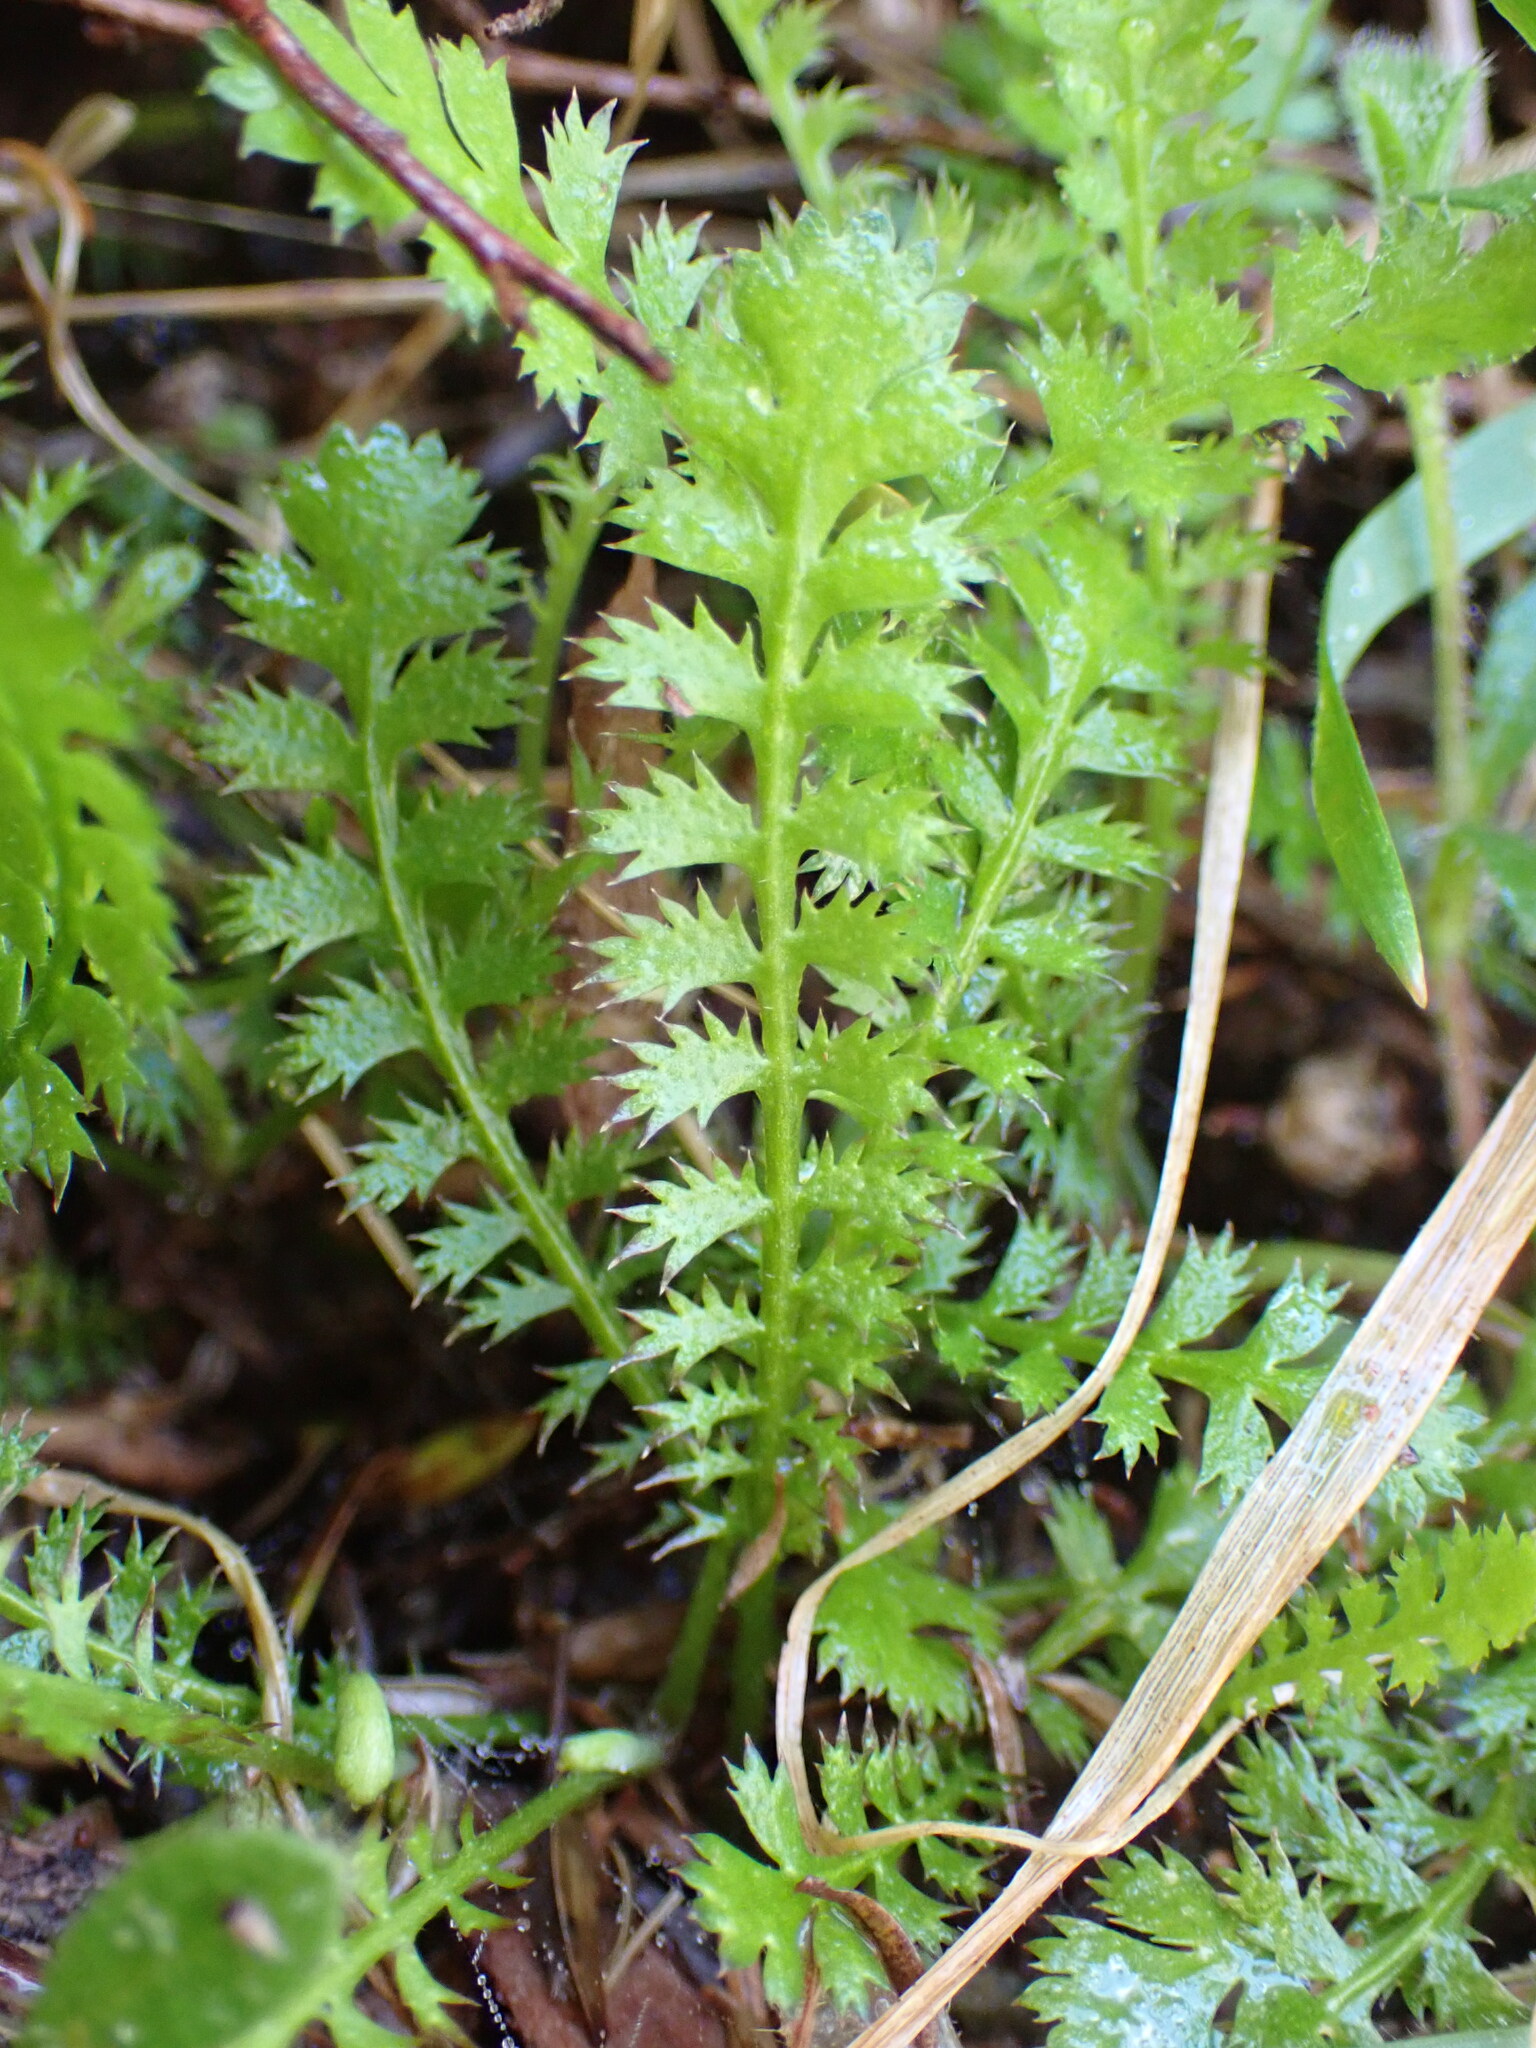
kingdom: Plantae
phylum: Tracheophyta
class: Magnoliopsida
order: Asterales
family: Asteraceae
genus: Leptinella
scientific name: Leptinella squalida
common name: New zealand brass-buttons
